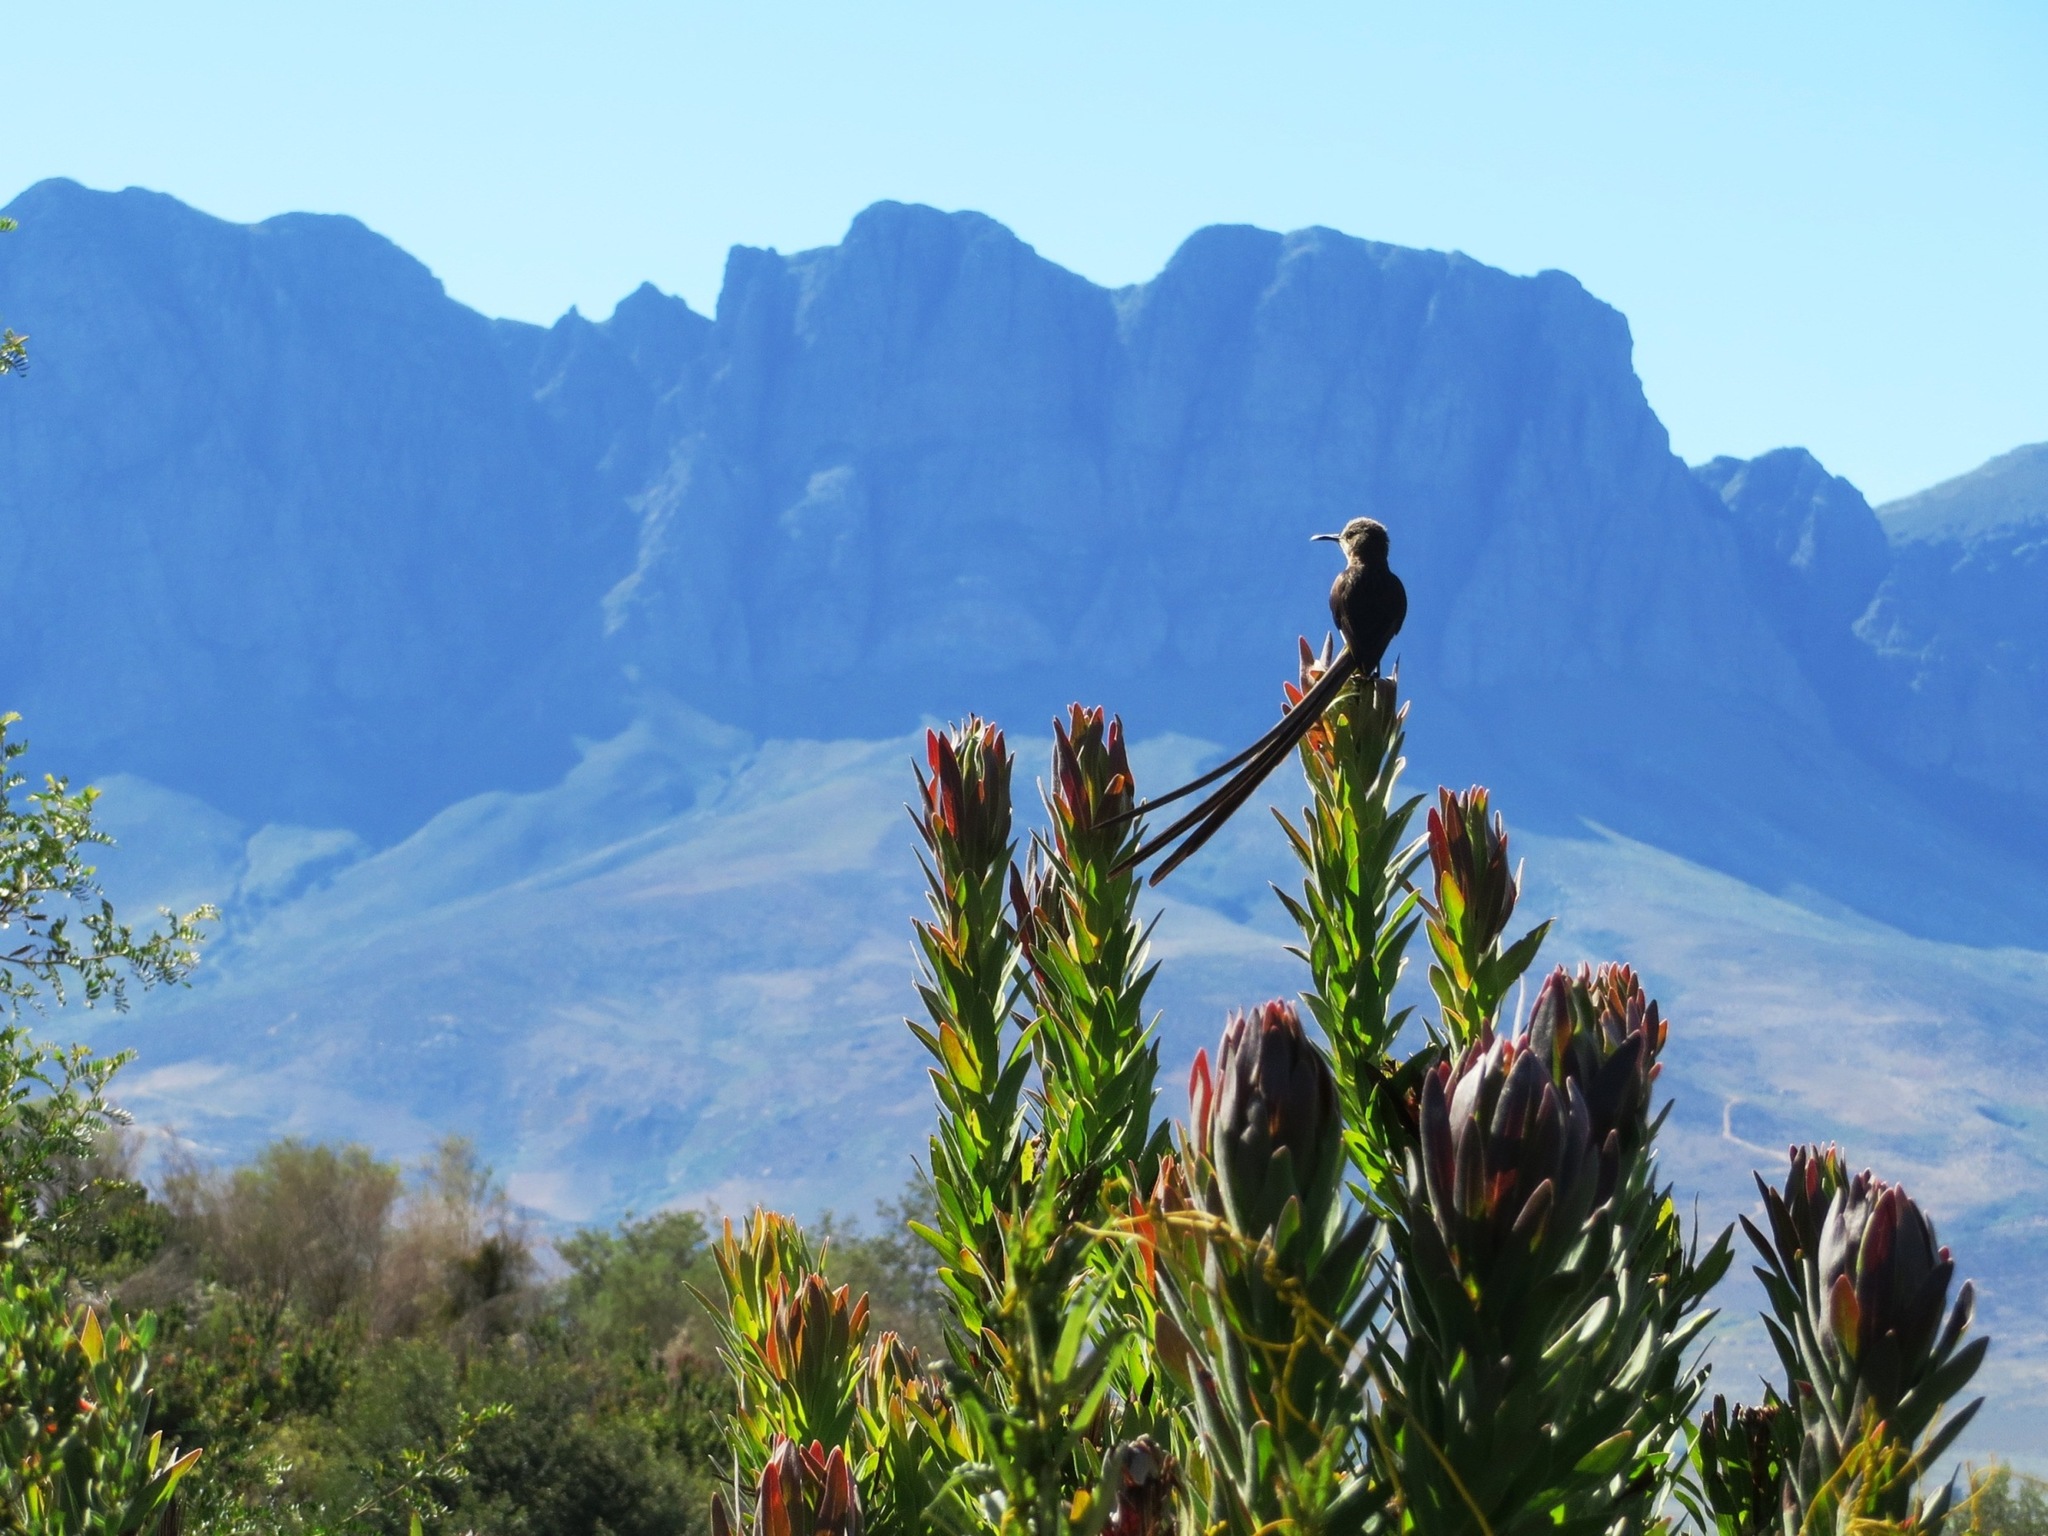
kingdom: Animalia
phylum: Chordata
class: Aves
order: Passeriformes
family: Promeropidae
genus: Promerops
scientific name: Promerops cafer
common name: Cape sugarbird
